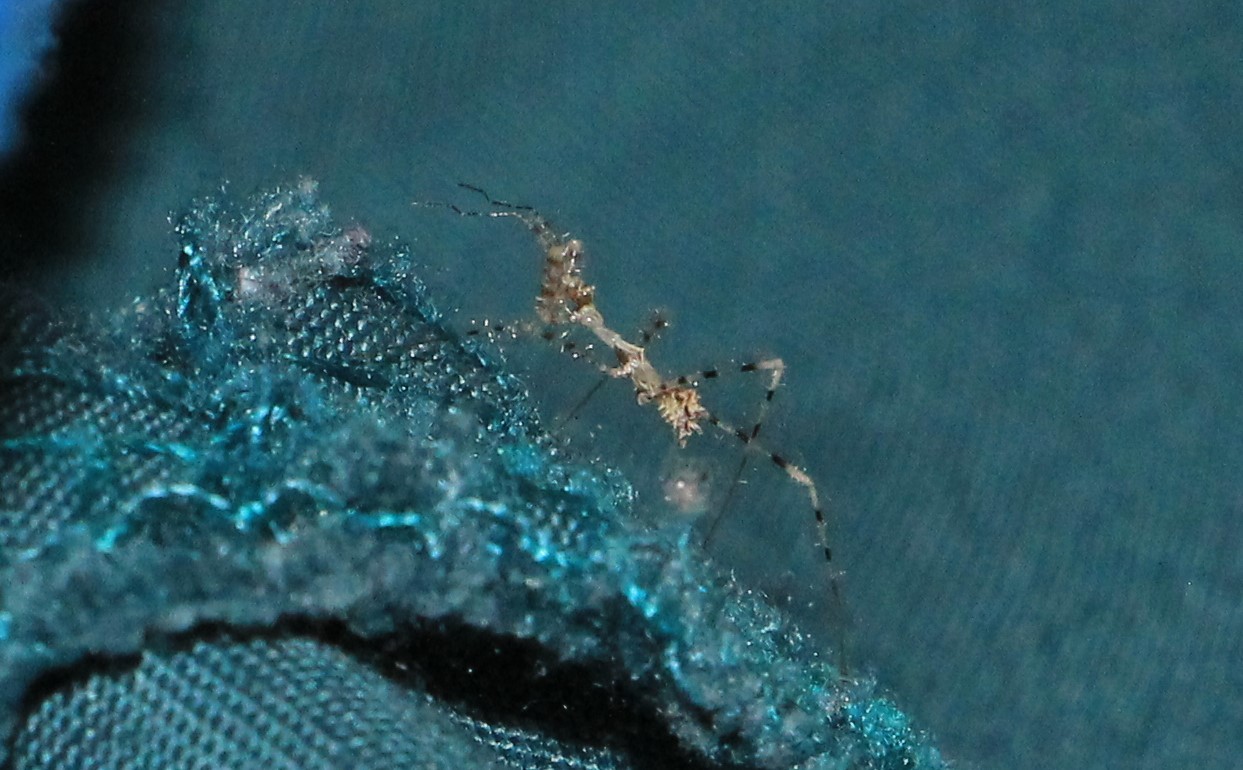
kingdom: Animalia
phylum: Arthropoda
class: Insecta
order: Hemiptera
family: Reduviidae
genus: Stenolemus
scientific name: Stenolemus fraterculus
